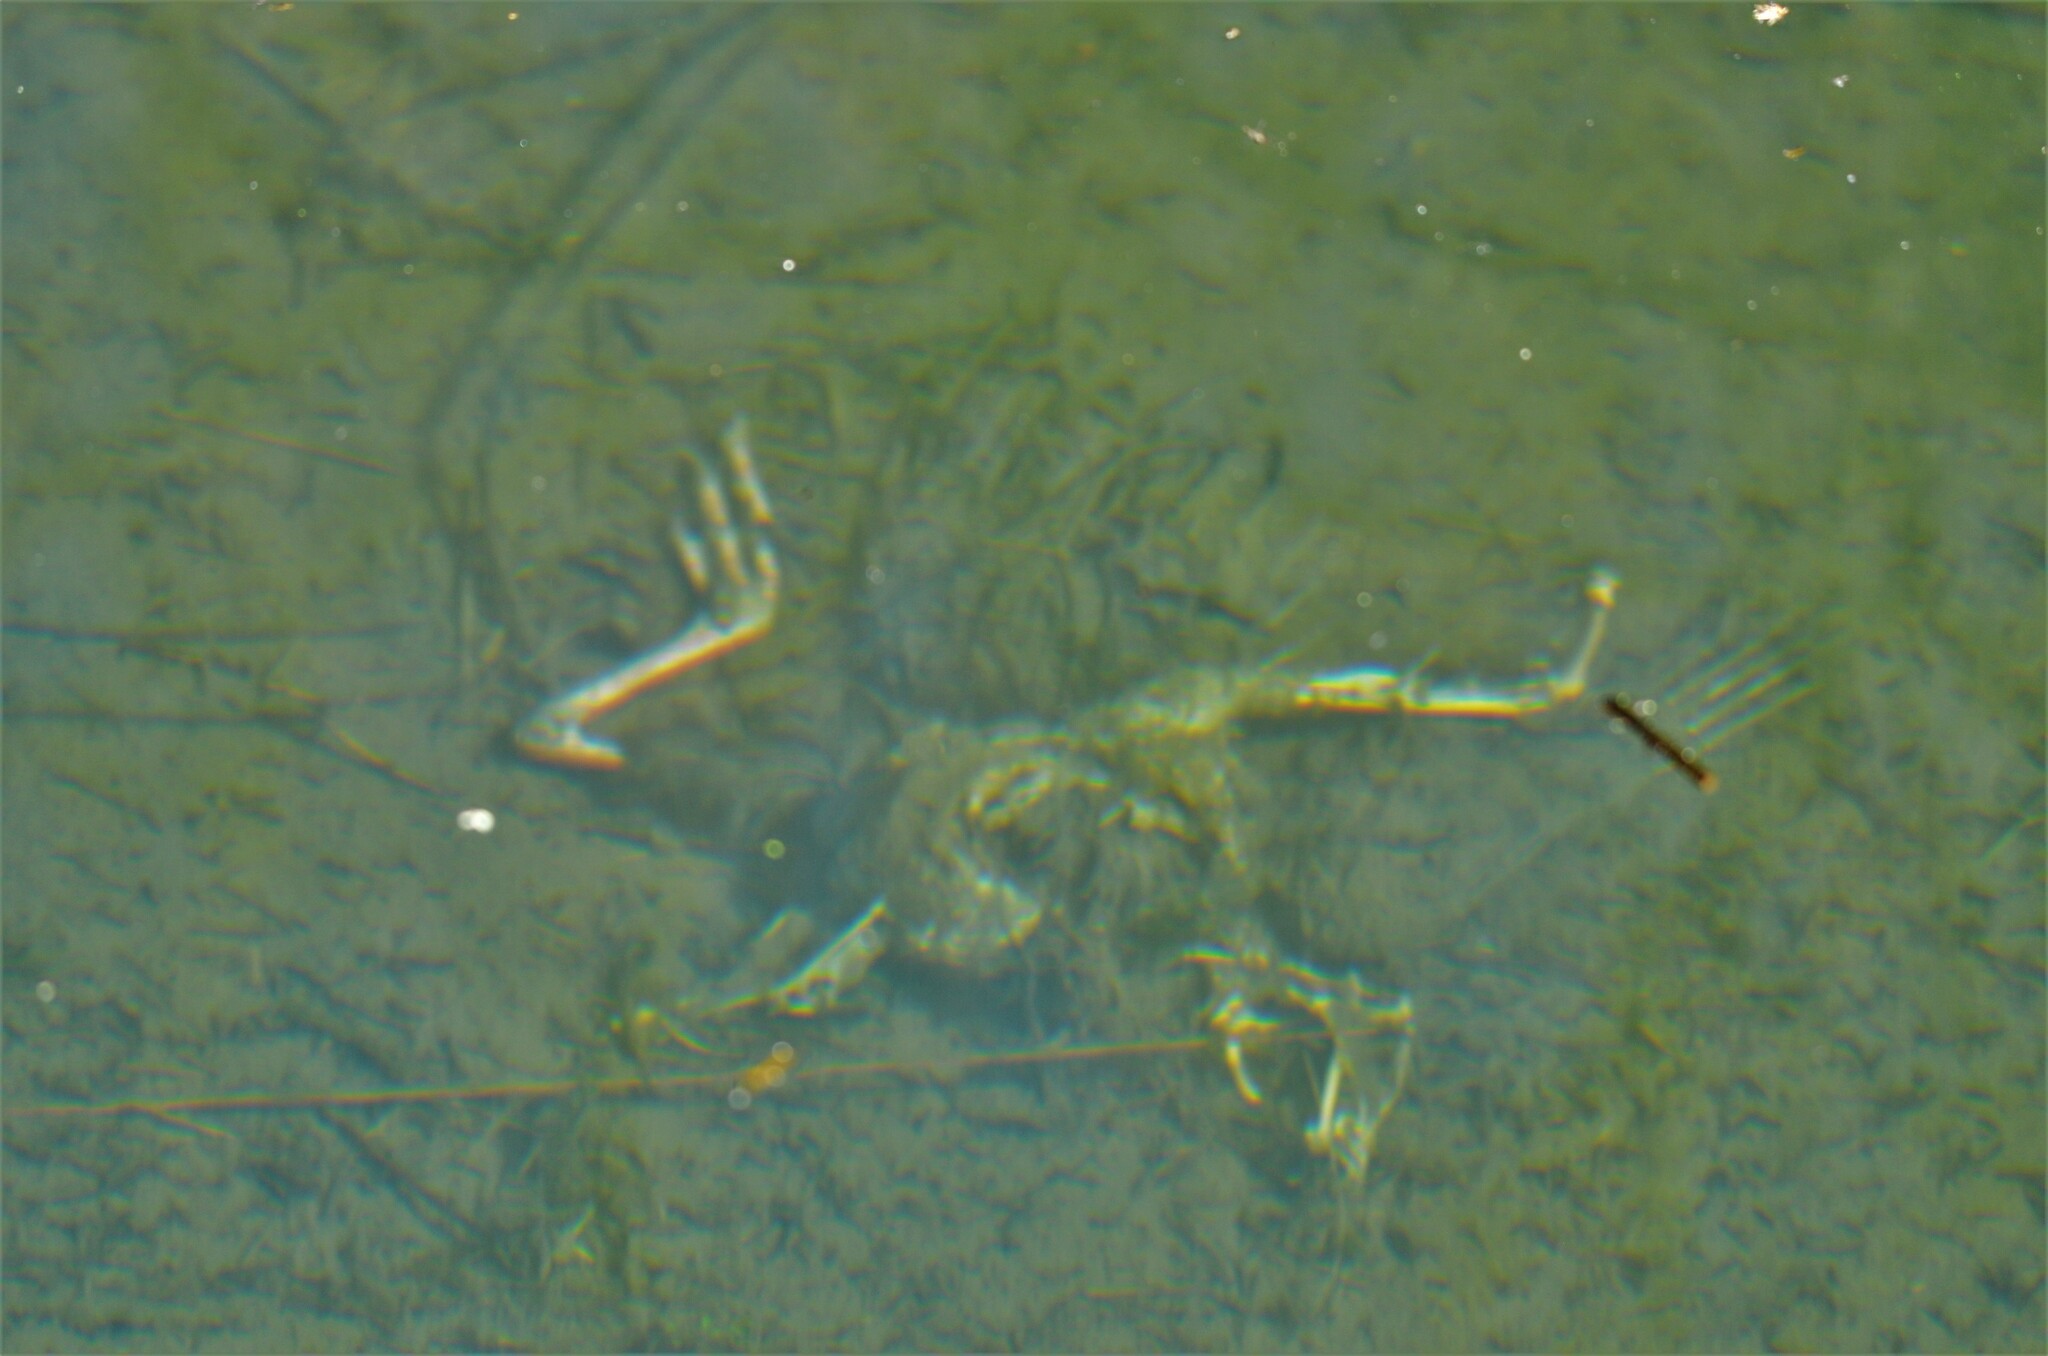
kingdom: Animalia
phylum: Chordata
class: Aves
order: Gruiformes
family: Rallidae
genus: Porphyrio
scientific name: Porphyrio melanotus
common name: Australasian swamphen
